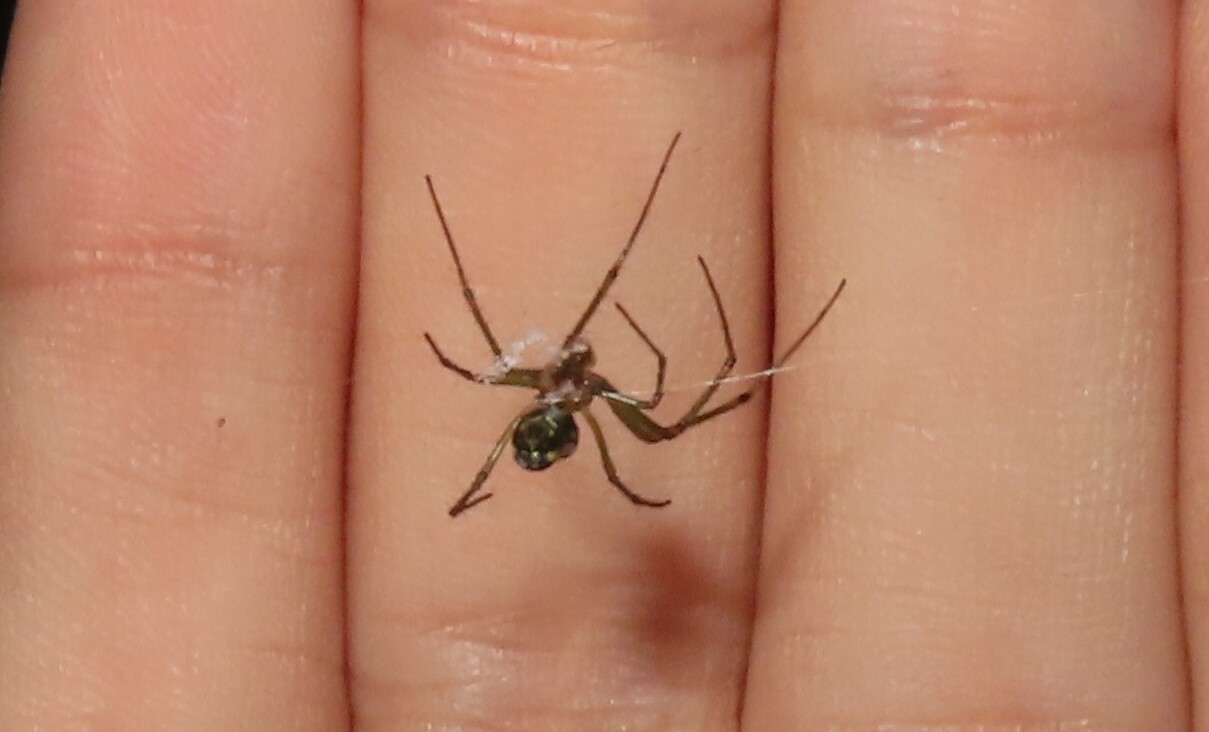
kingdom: Animalia
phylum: Arthropoda
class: Arachnida
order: Araneae
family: Tetragnathidae
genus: Leucauge
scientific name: Leucauge venusta
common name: Longjawed orb weavers
